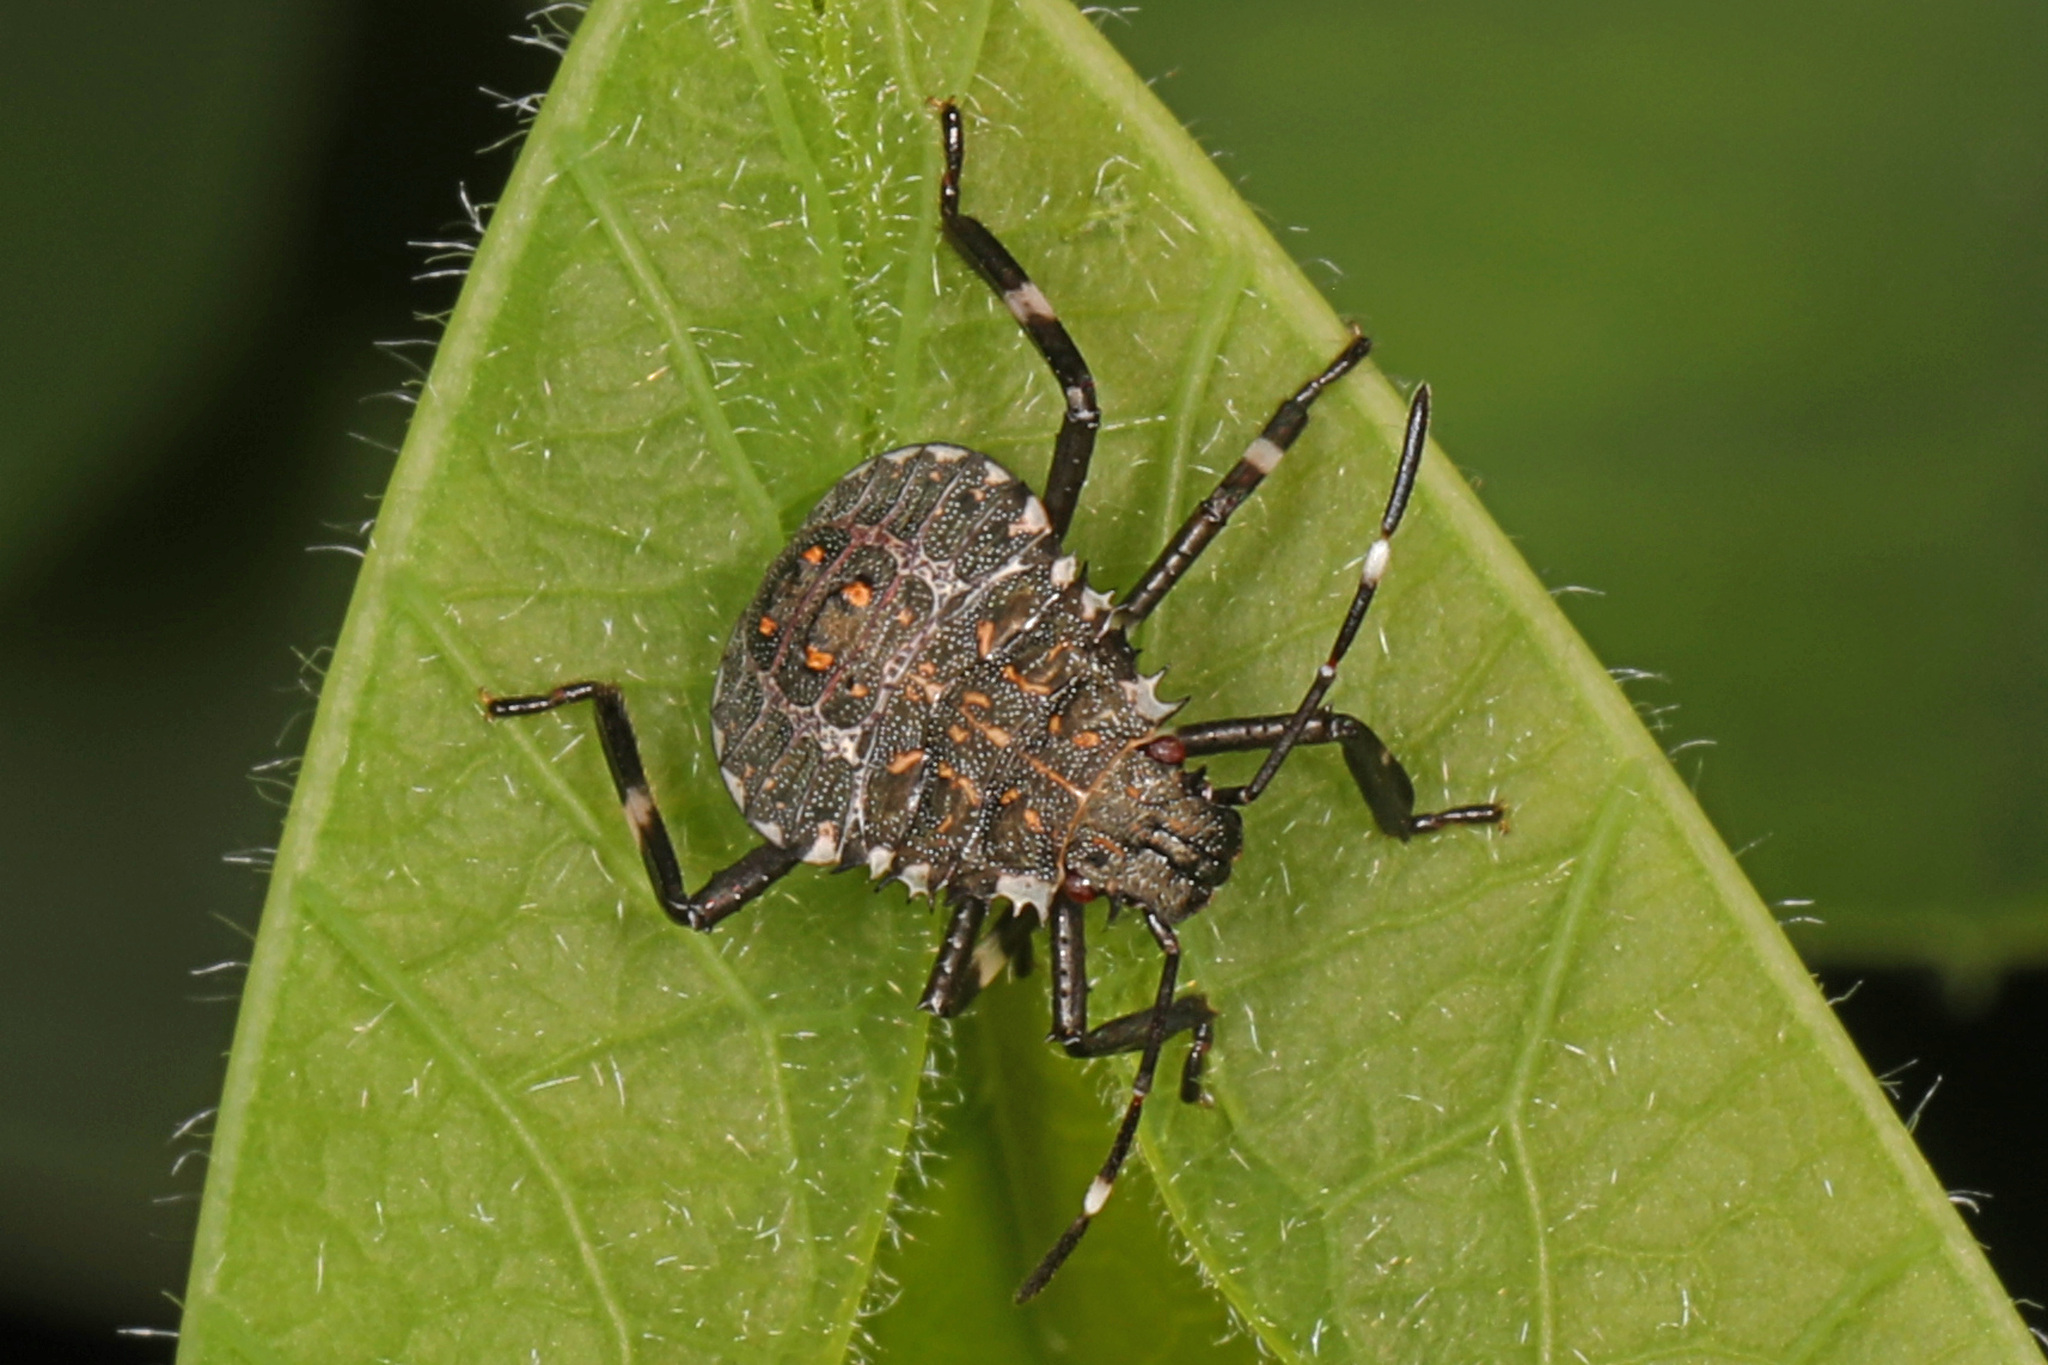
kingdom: Animalia
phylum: Arthropoda
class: Insecta
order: Hemiptera
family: Pentatomidae
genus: Halyomorpha
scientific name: Halyomorpha halys
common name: Brown marmorated stink bug
